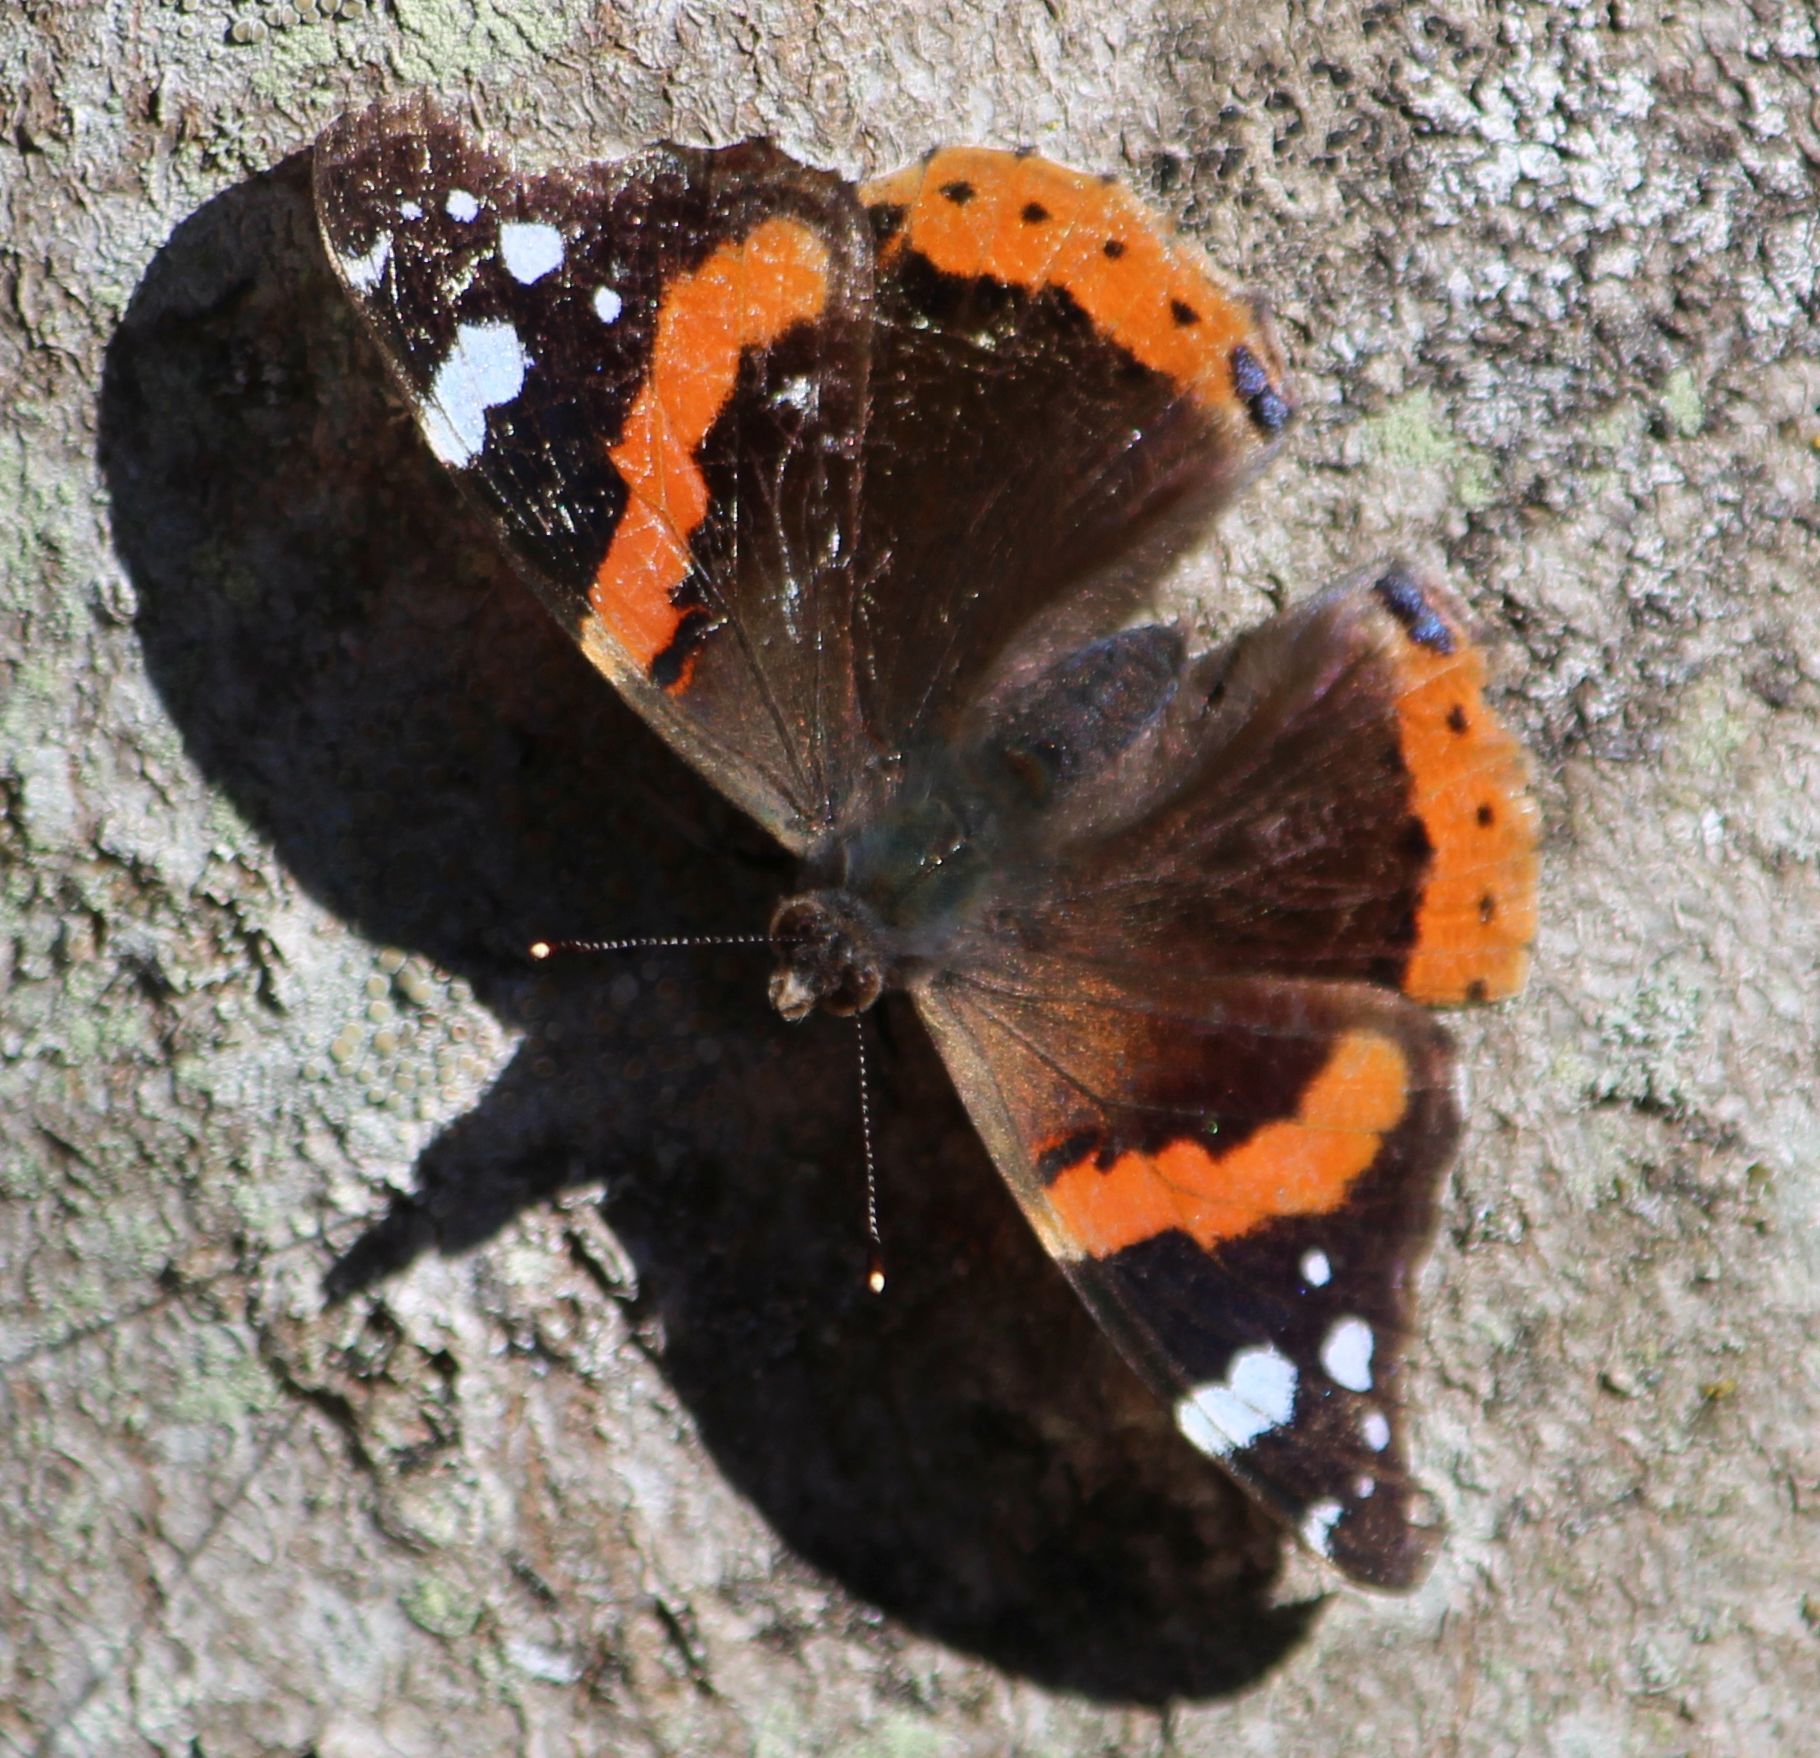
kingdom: Animalia
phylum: Arthropoda
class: Insecta
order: Lepidoptera
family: Nymphalidae
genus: Vanessa
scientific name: Vanessa atalanta
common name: Red admiral
